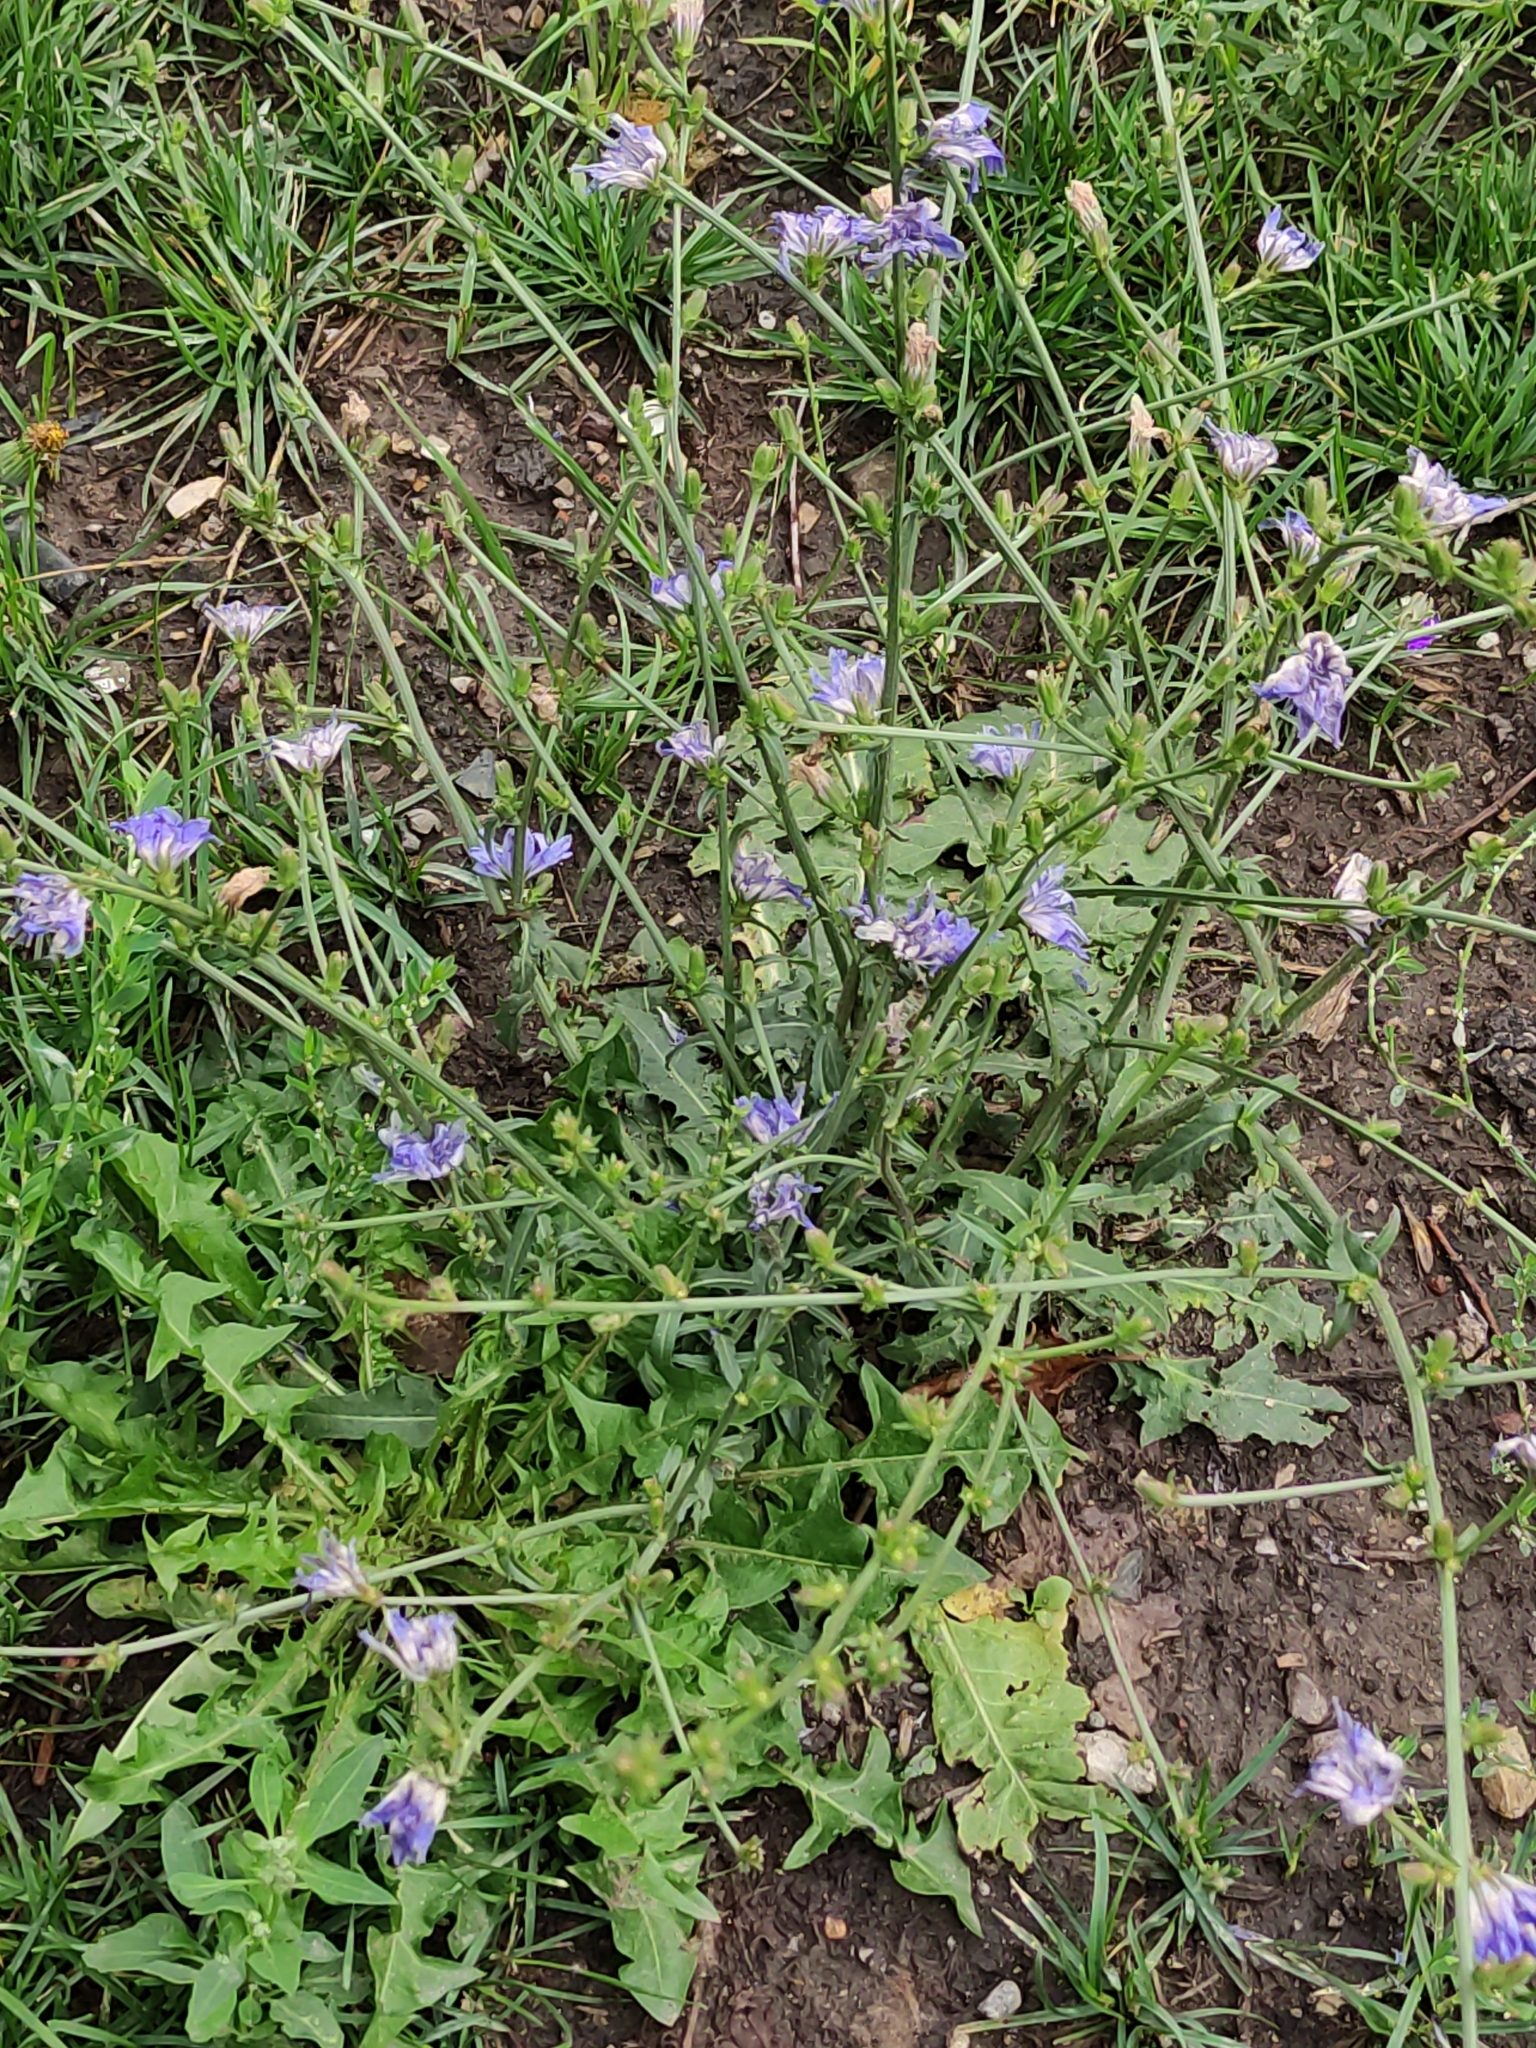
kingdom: Plantae
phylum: Tracheophyta
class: Magnoliopsida
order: Asterales
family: Asteraceae
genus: Cichorium
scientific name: Cichorium intybus
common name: Chicory
